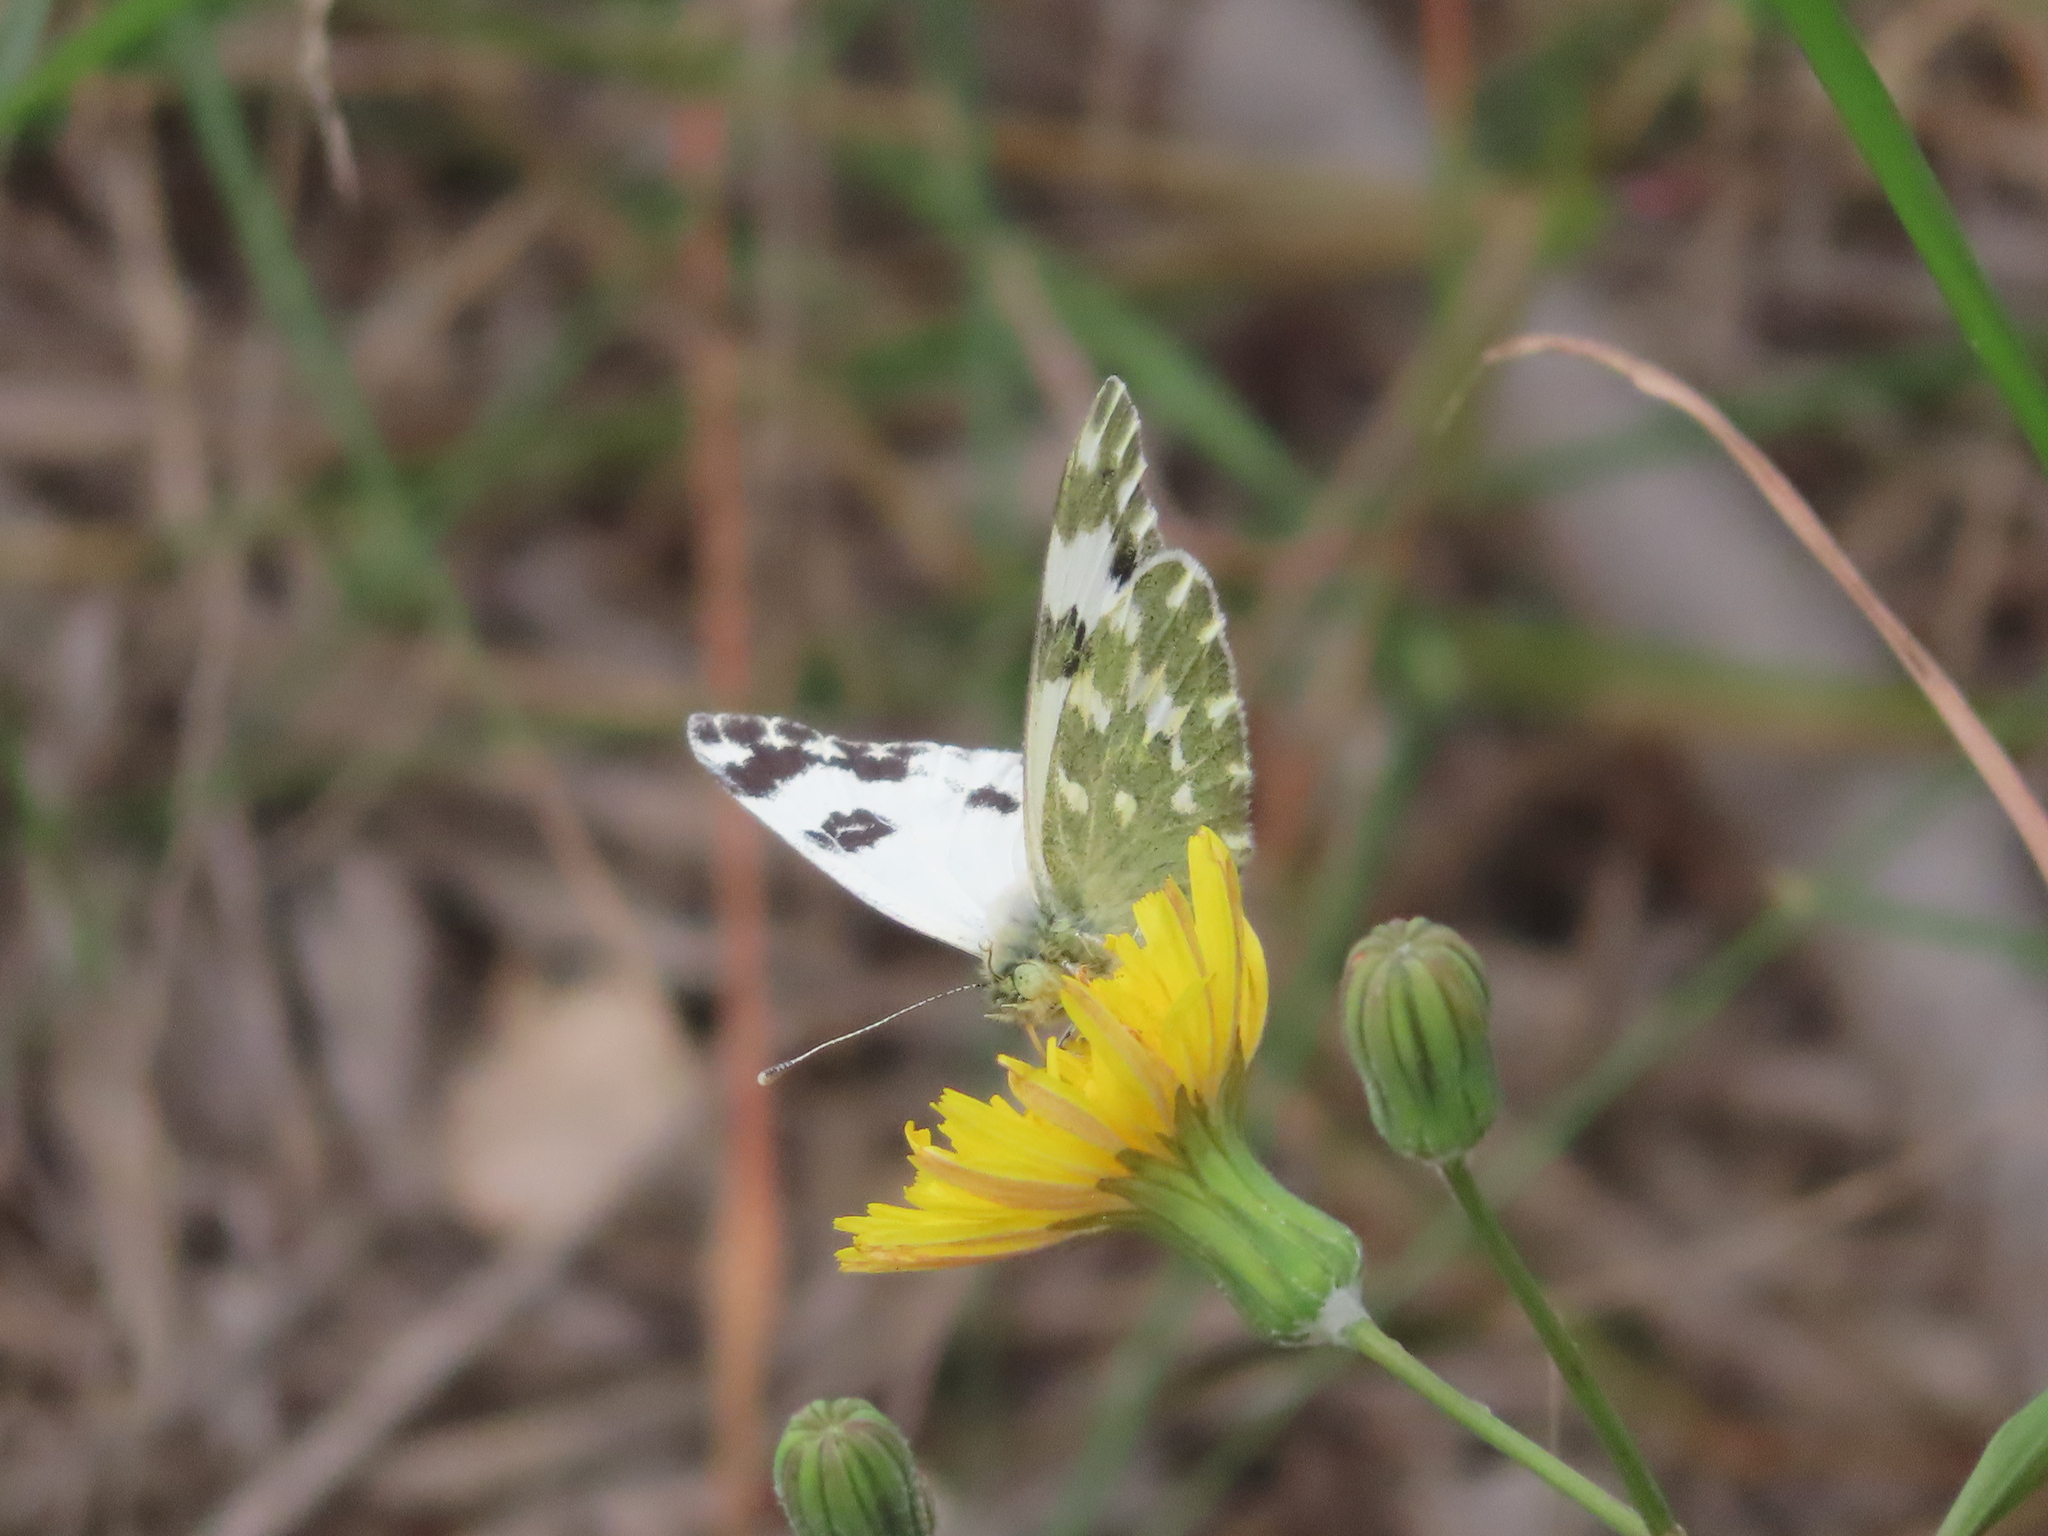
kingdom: Animalia
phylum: Arthropoda
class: Insecta
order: Lepidoptera
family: Pieridae
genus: Pontia
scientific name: Pontia daplidice
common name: Bath white
